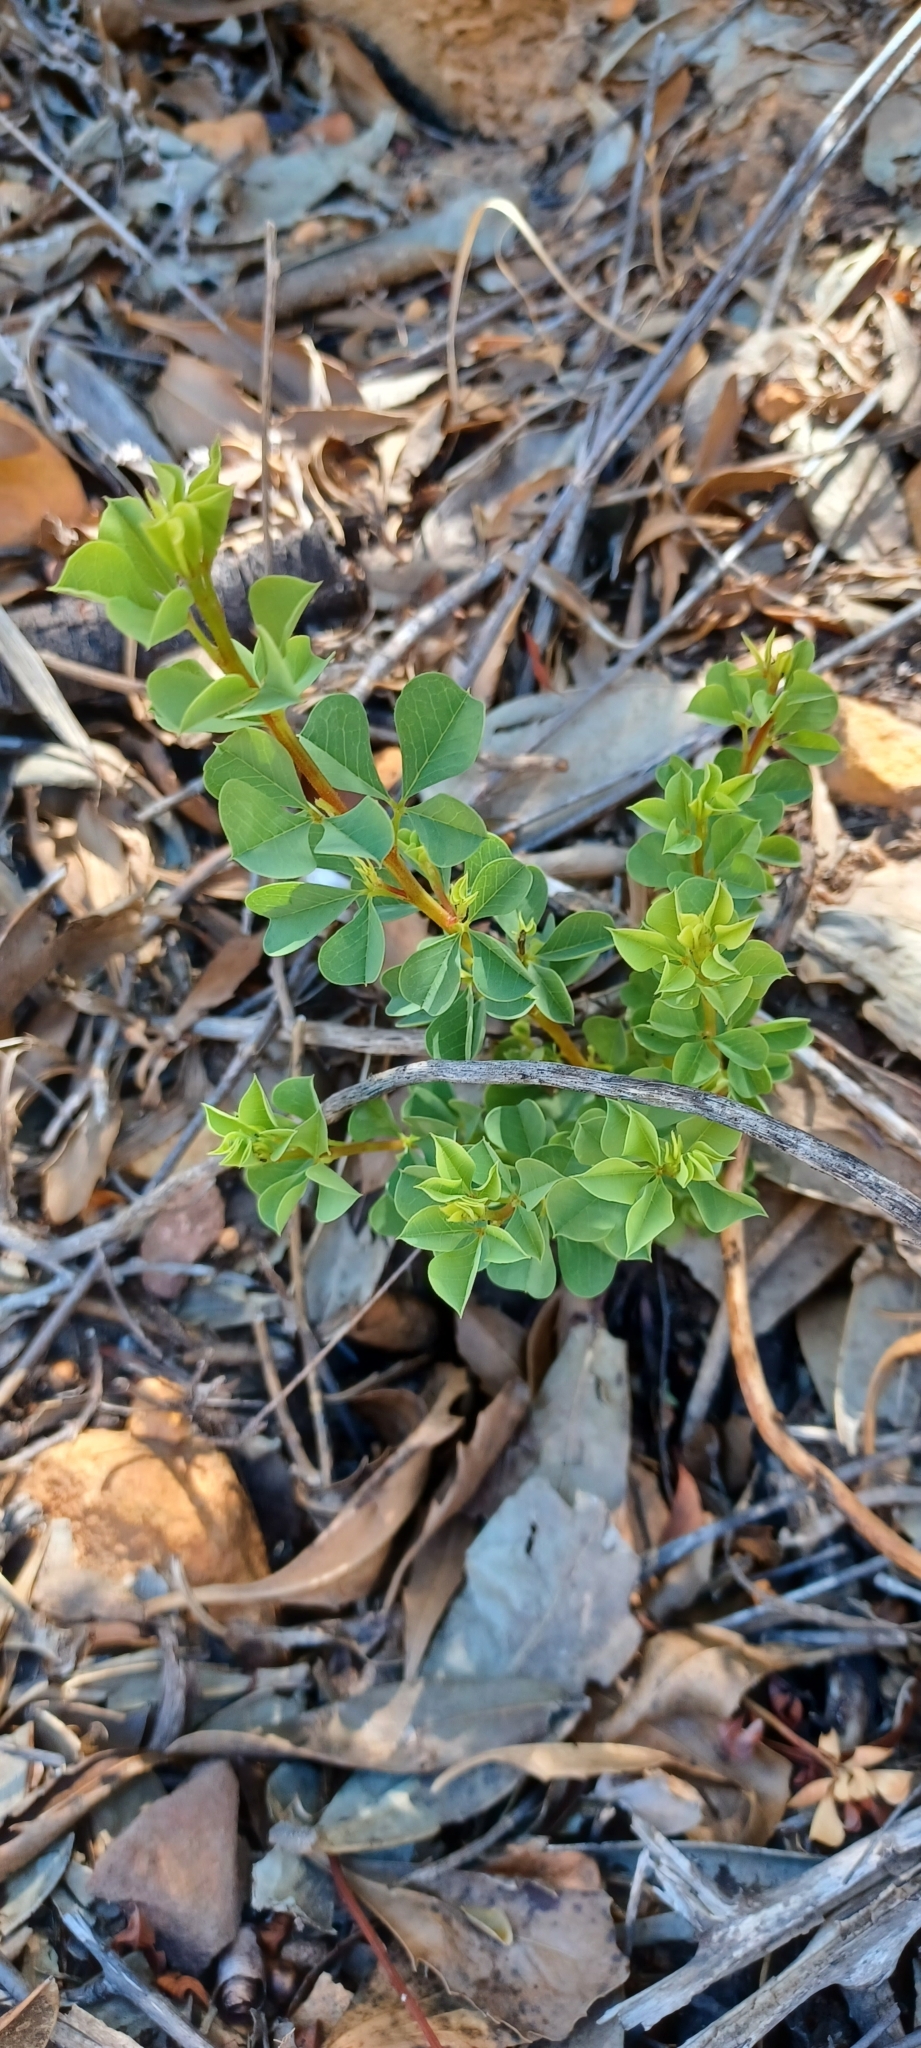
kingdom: Plantae
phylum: Tracheophyta
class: Magnoliopsida
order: Fabales
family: Fabaceae
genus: Hypocalyptus
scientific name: Hypocalyptus sophoroides
